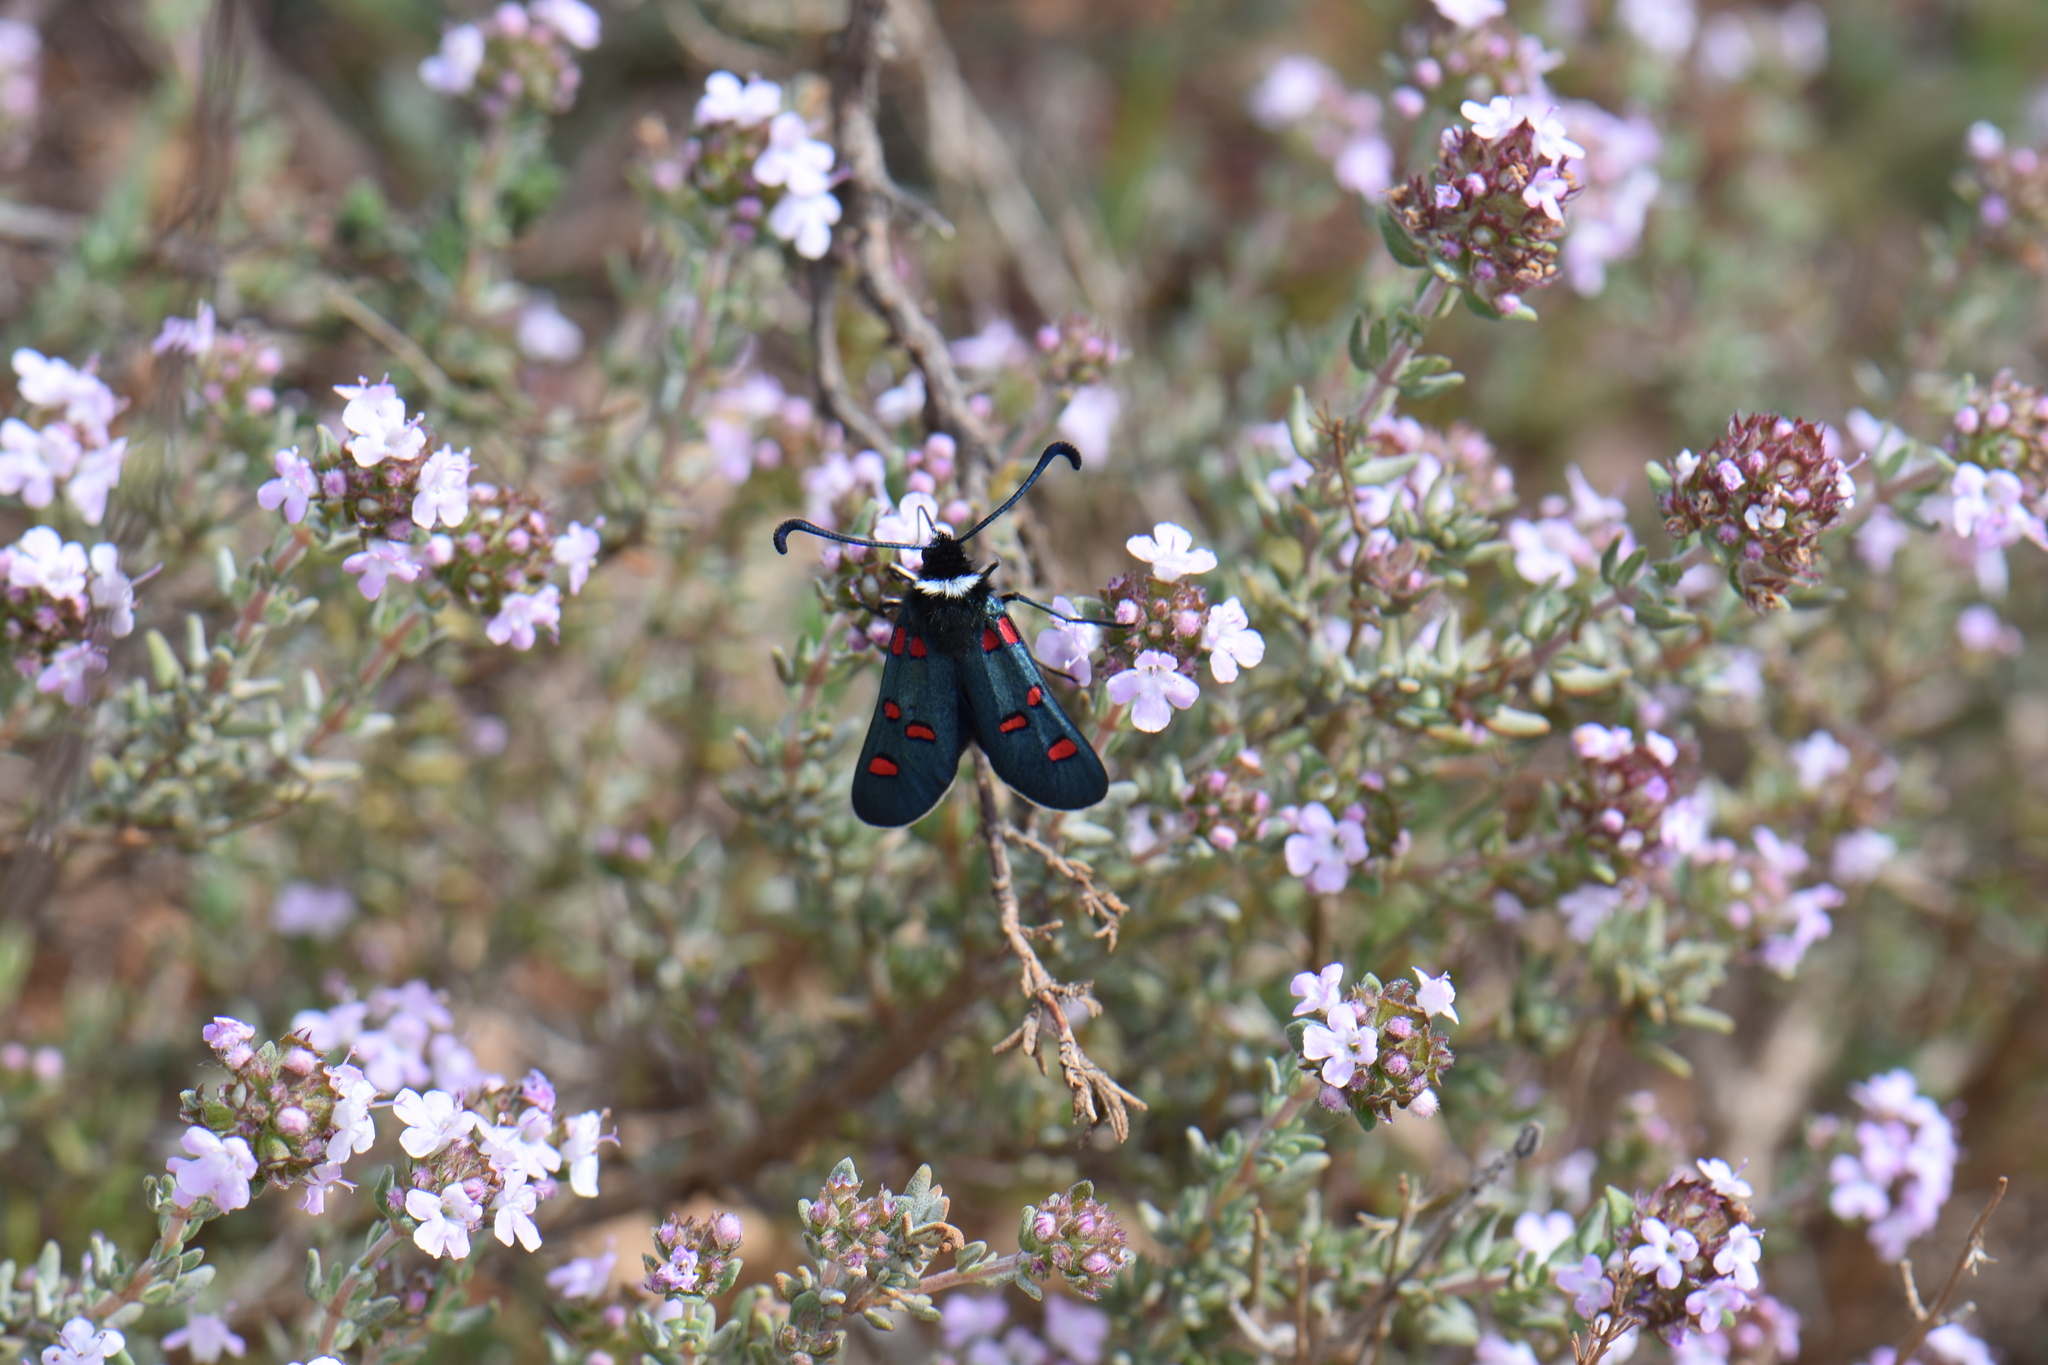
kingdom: Animalia
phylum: Arthropoda
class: Insecta
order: Lepidoptera
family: Zygaenidae
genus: Zygaena
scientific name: Zygaena lavandulae
